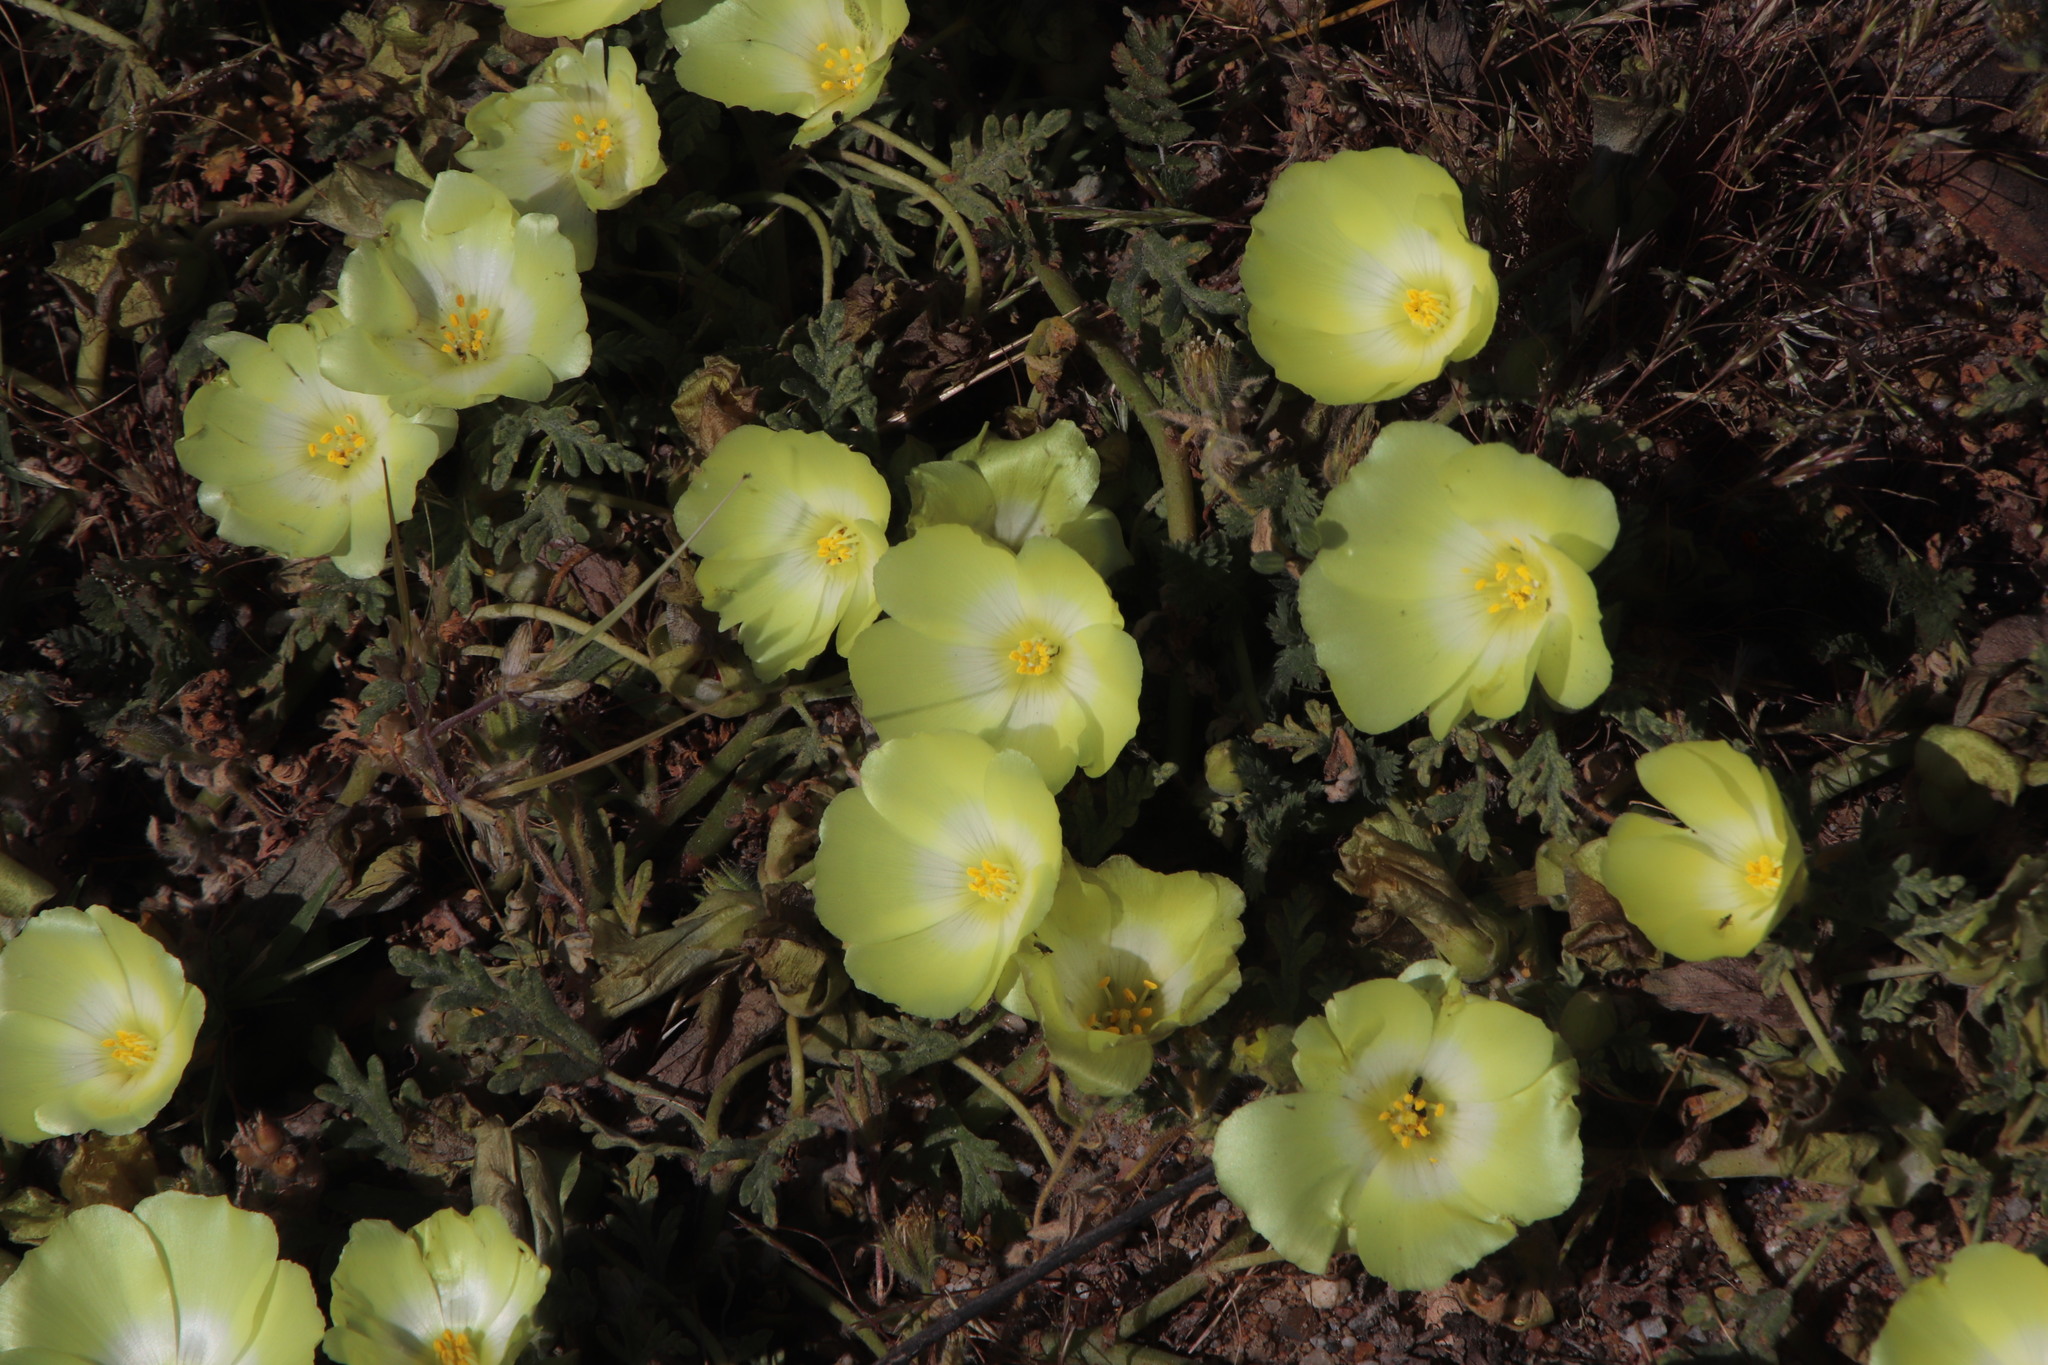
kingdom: Plantae
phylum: Tracheophyta
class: Magnoliopsida
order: Malvales
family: Neuradaceae
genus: Grielum
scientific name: Grielum humifusum
